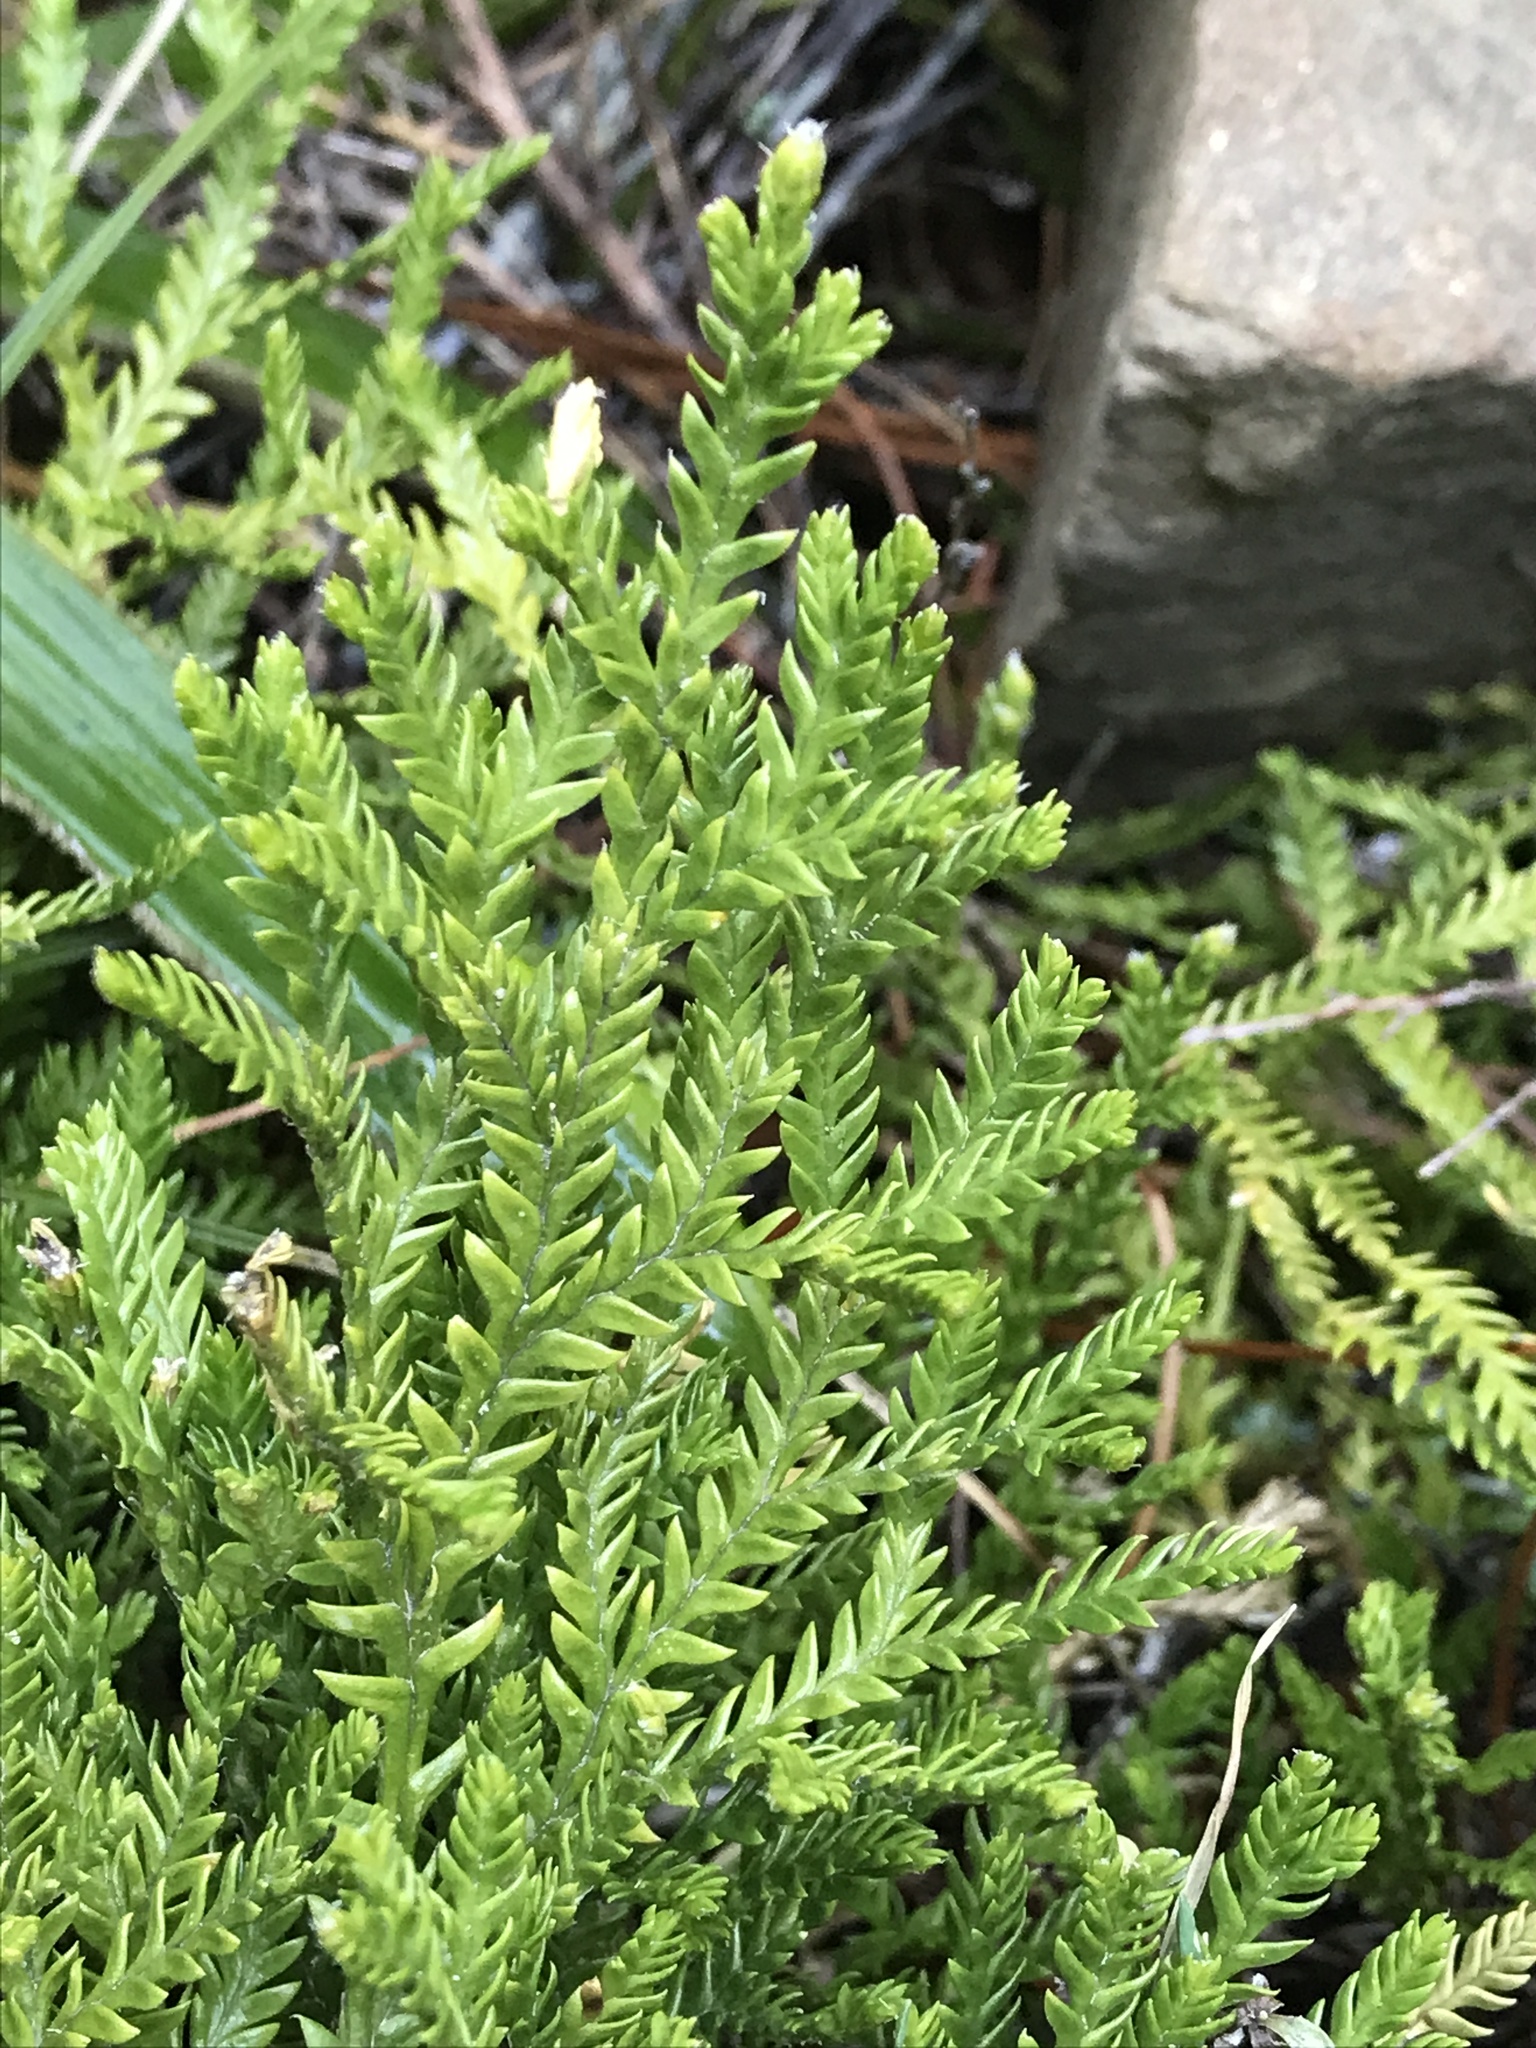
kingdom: Plantae
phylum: Tracheophyta
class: Lycopodiopsida
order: Lycopodiales
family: Lycopodiaceae
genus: Diphasium
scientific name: Diphasium scariosum
